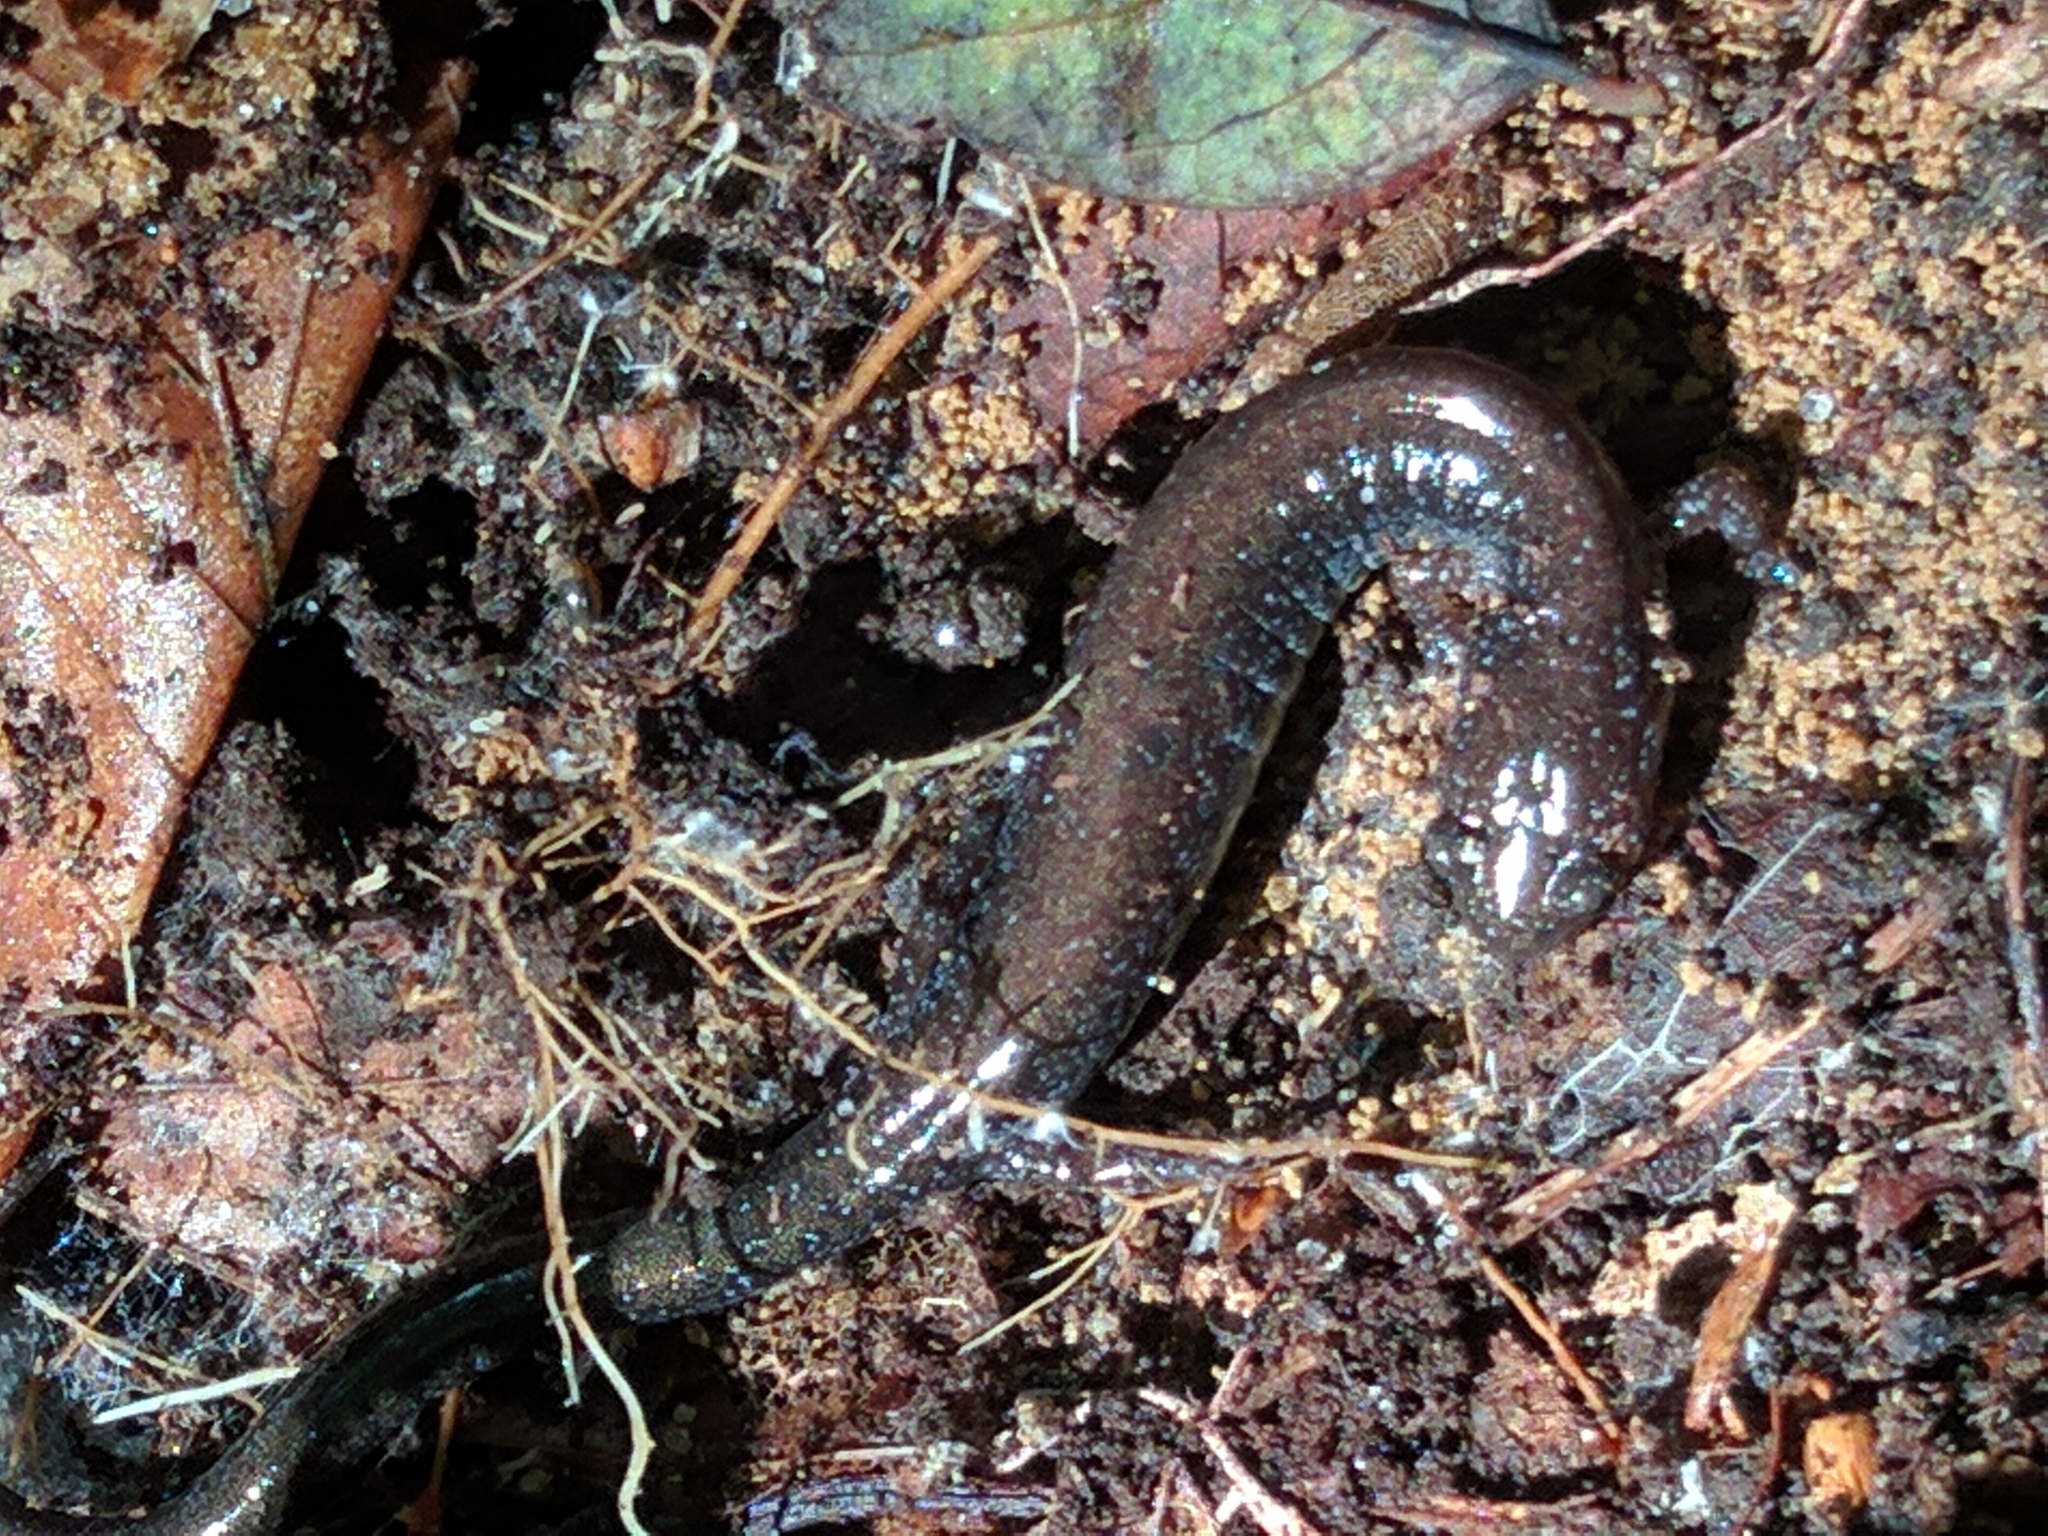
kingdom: Animalia
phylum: Chordata
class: Amphibia
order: Caudata
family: Plethodontidae
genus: Plethodon
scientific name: Plethodon cinereus
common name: Redback salamander
